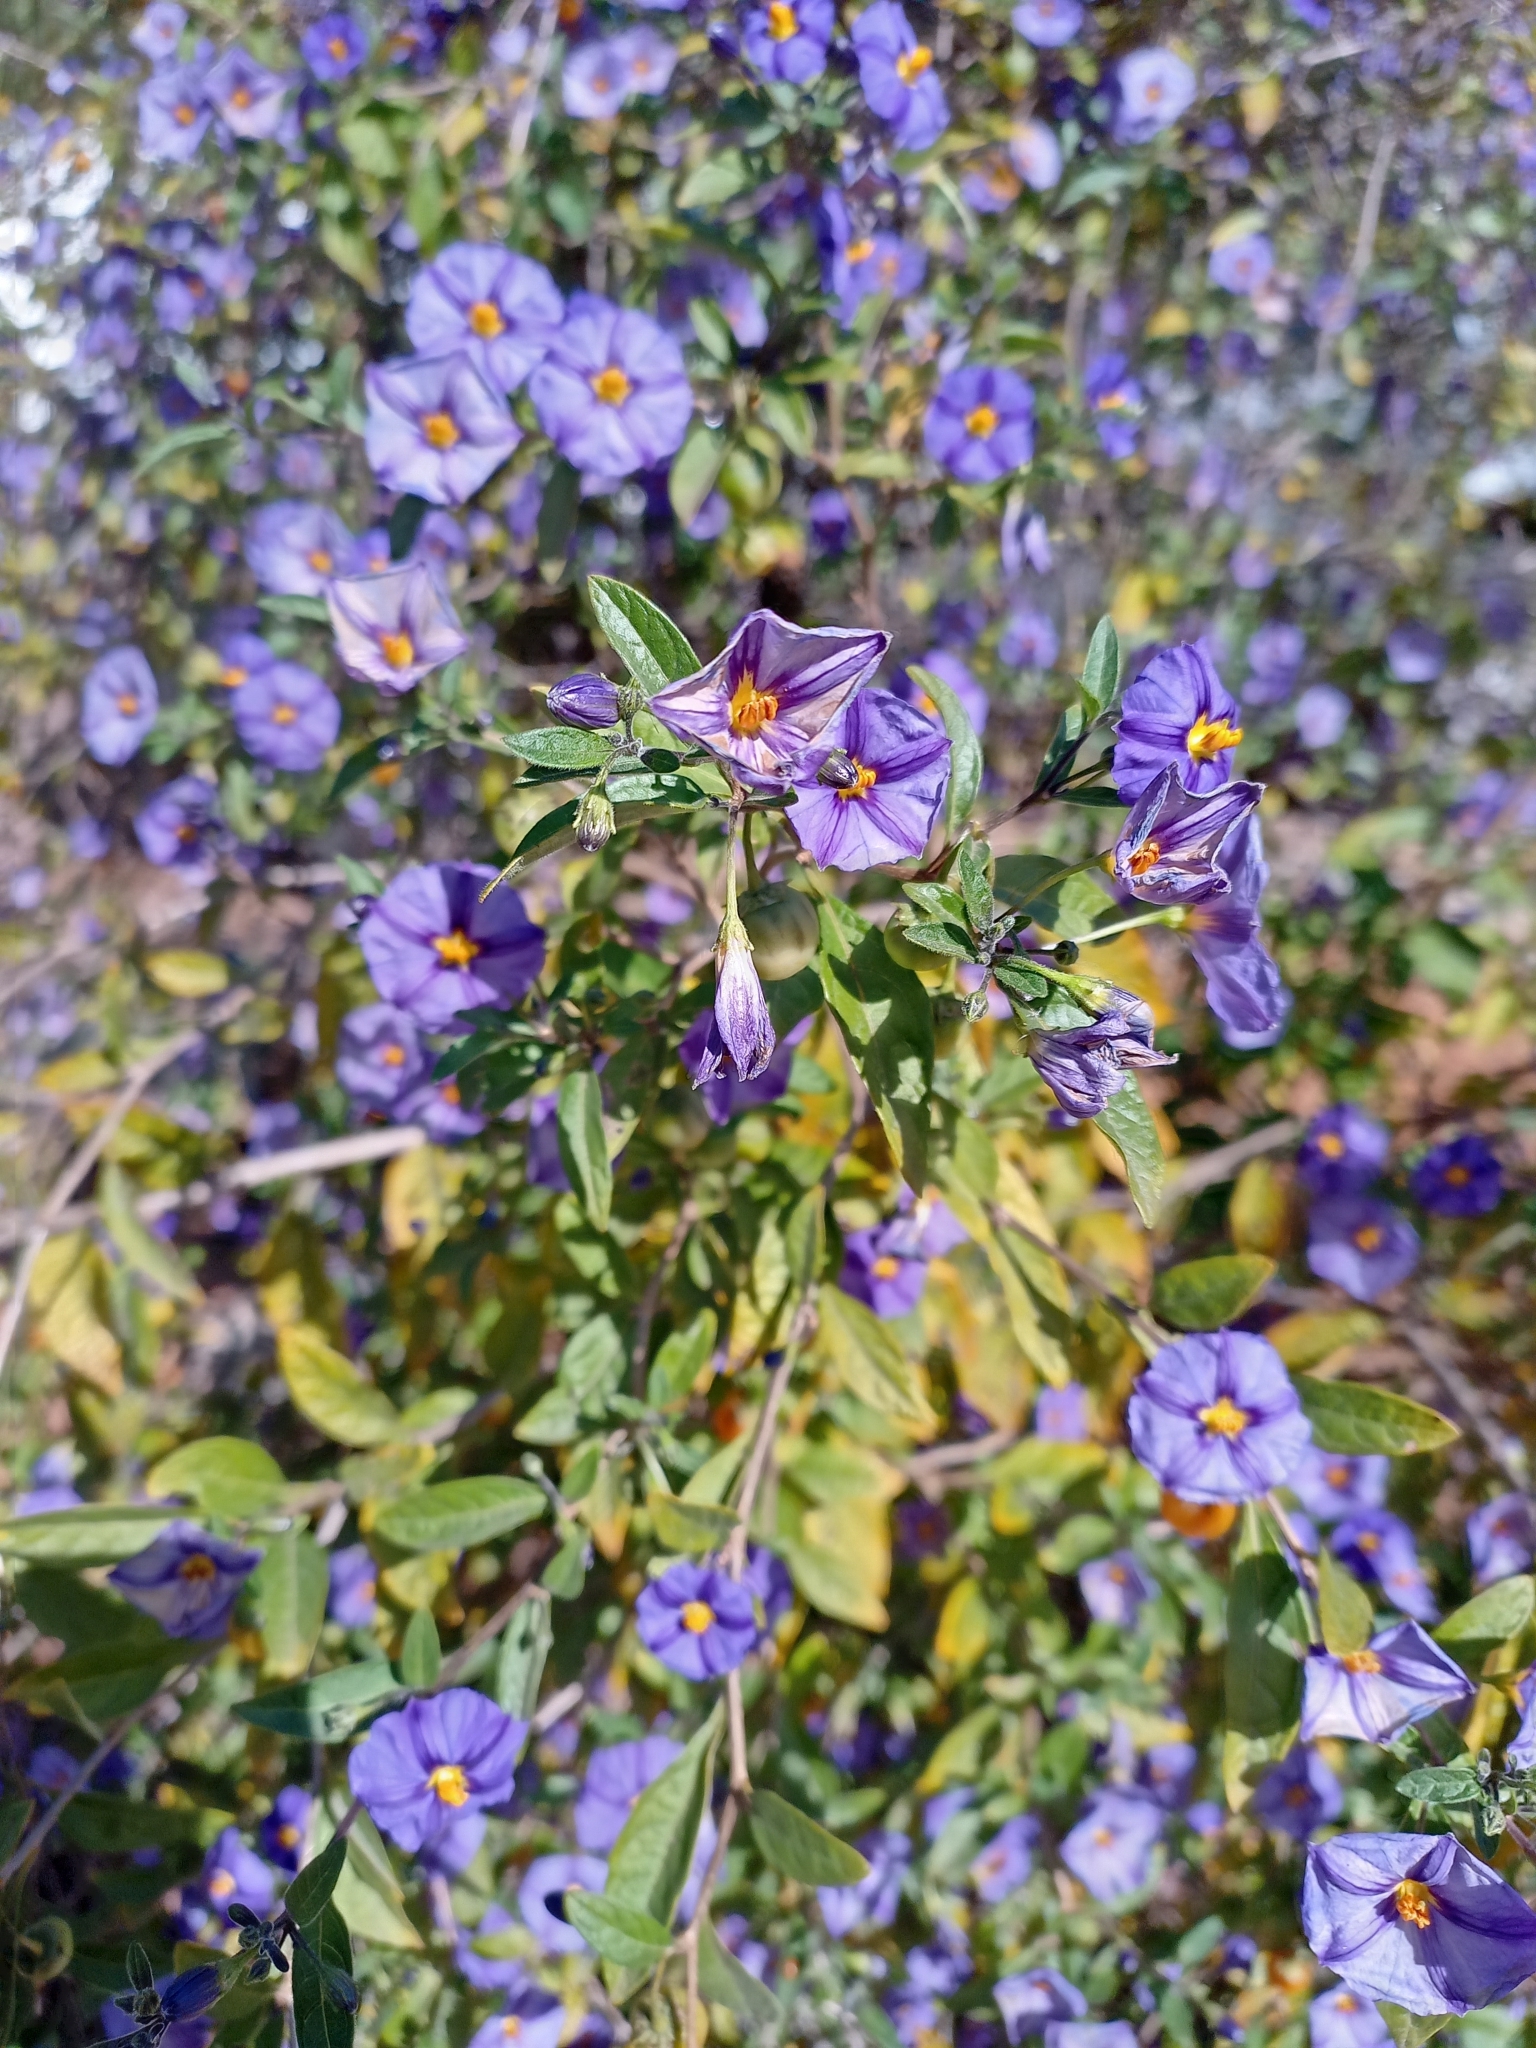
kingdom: Plantae
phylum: Tracheophyta
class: Magnoliopsida
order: Solanales
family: Solanaceae
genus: Lycianthes
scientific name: Lycianthes rantonnetii
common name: Blue potatobush
